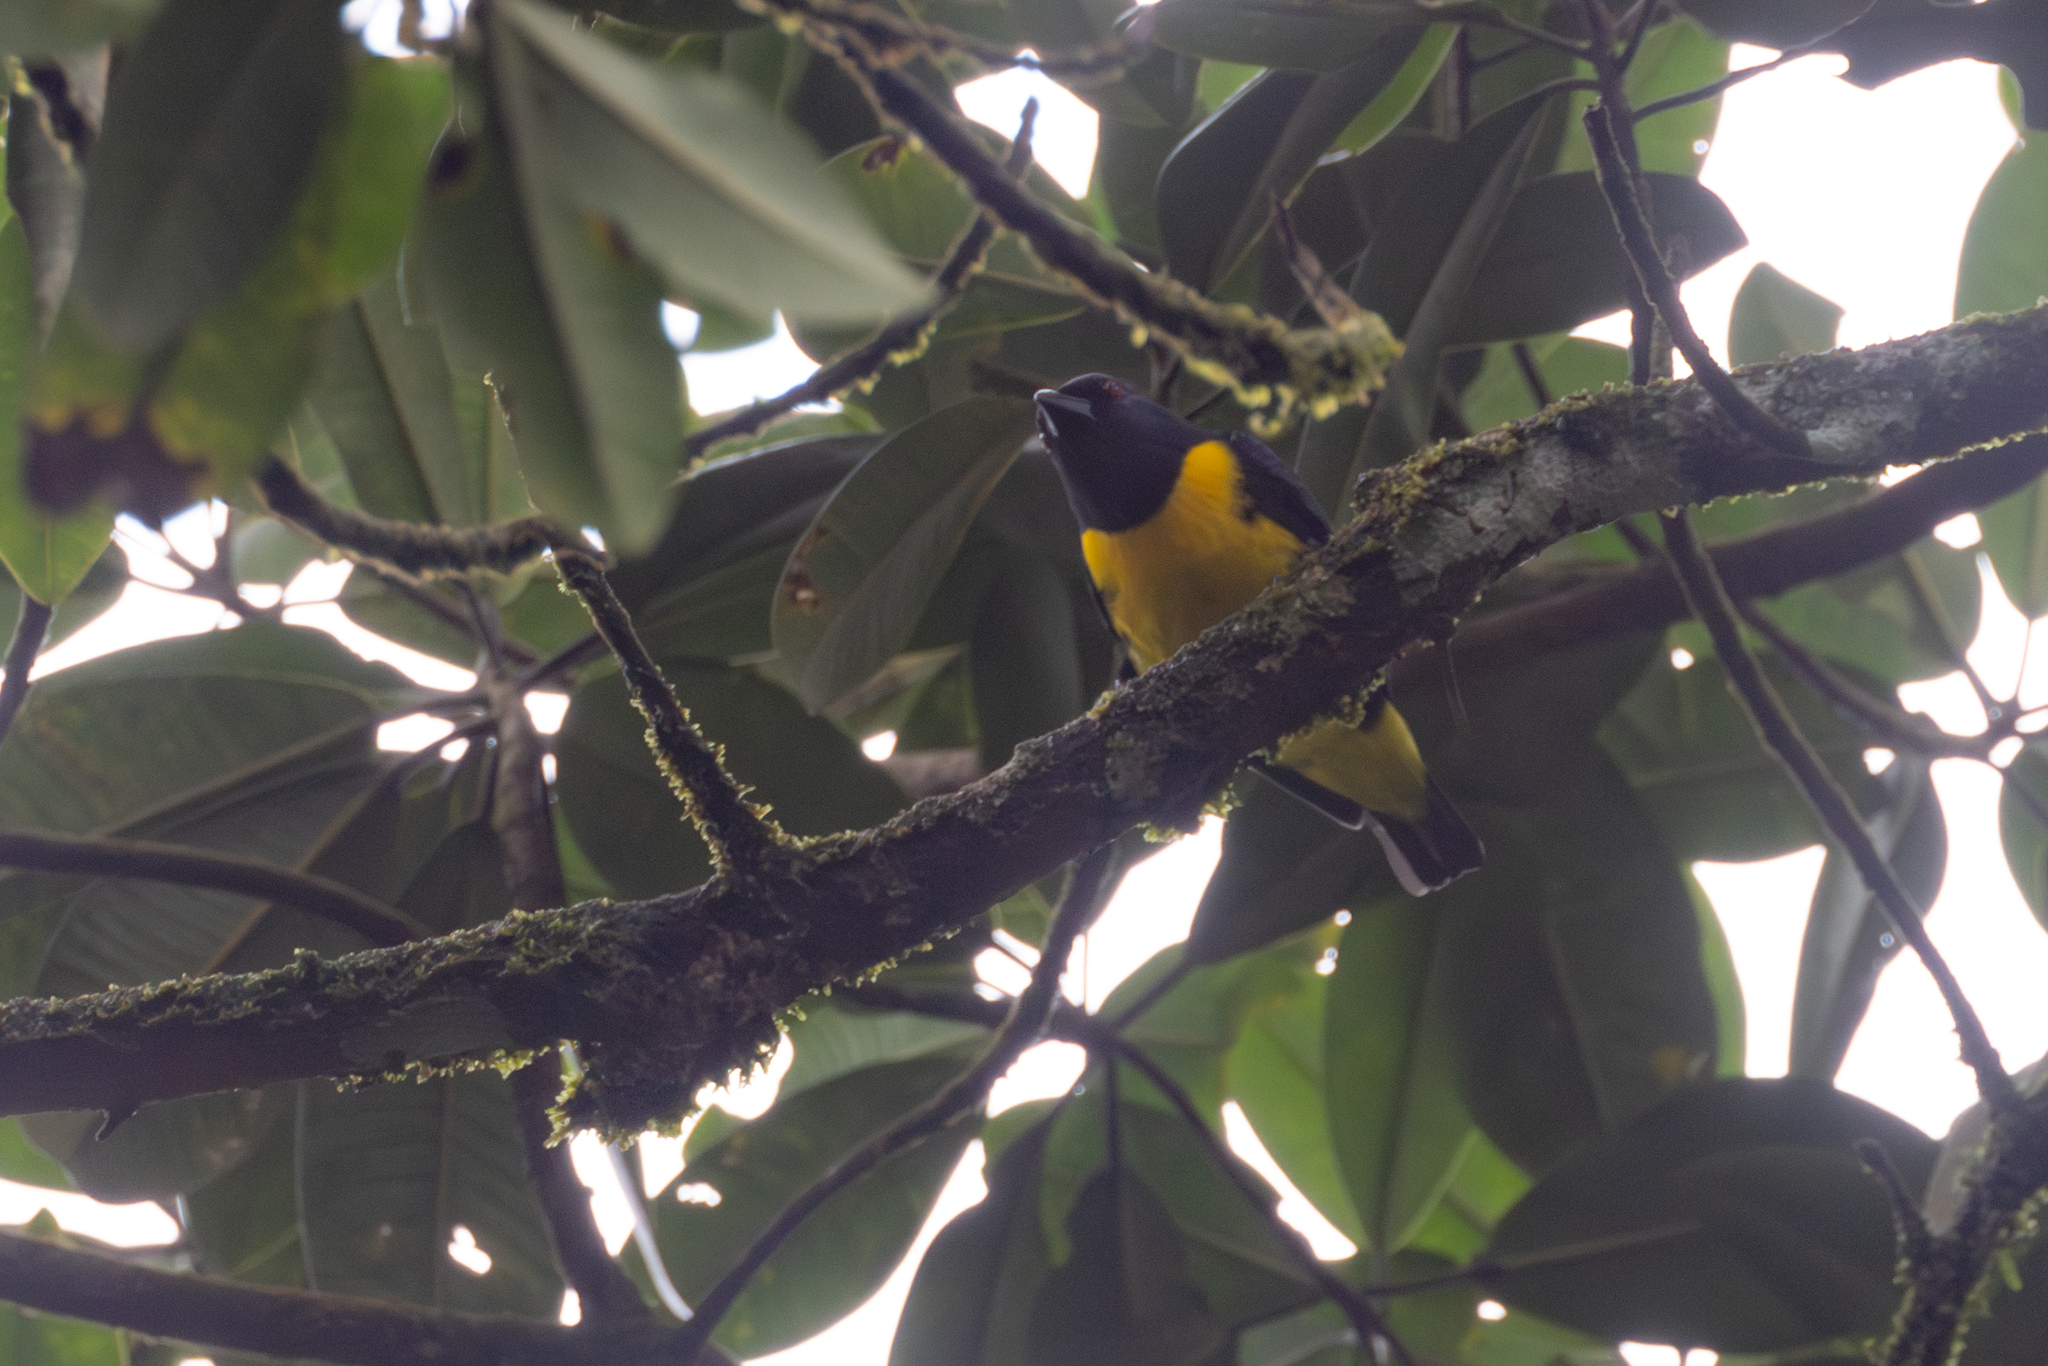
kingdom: Animalia
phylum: Chordata
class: Aves
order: Passeriformes
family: Thraupidae
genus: Bangsia
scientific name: Bangsia arcaei
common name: Blue-and-gold tanager
